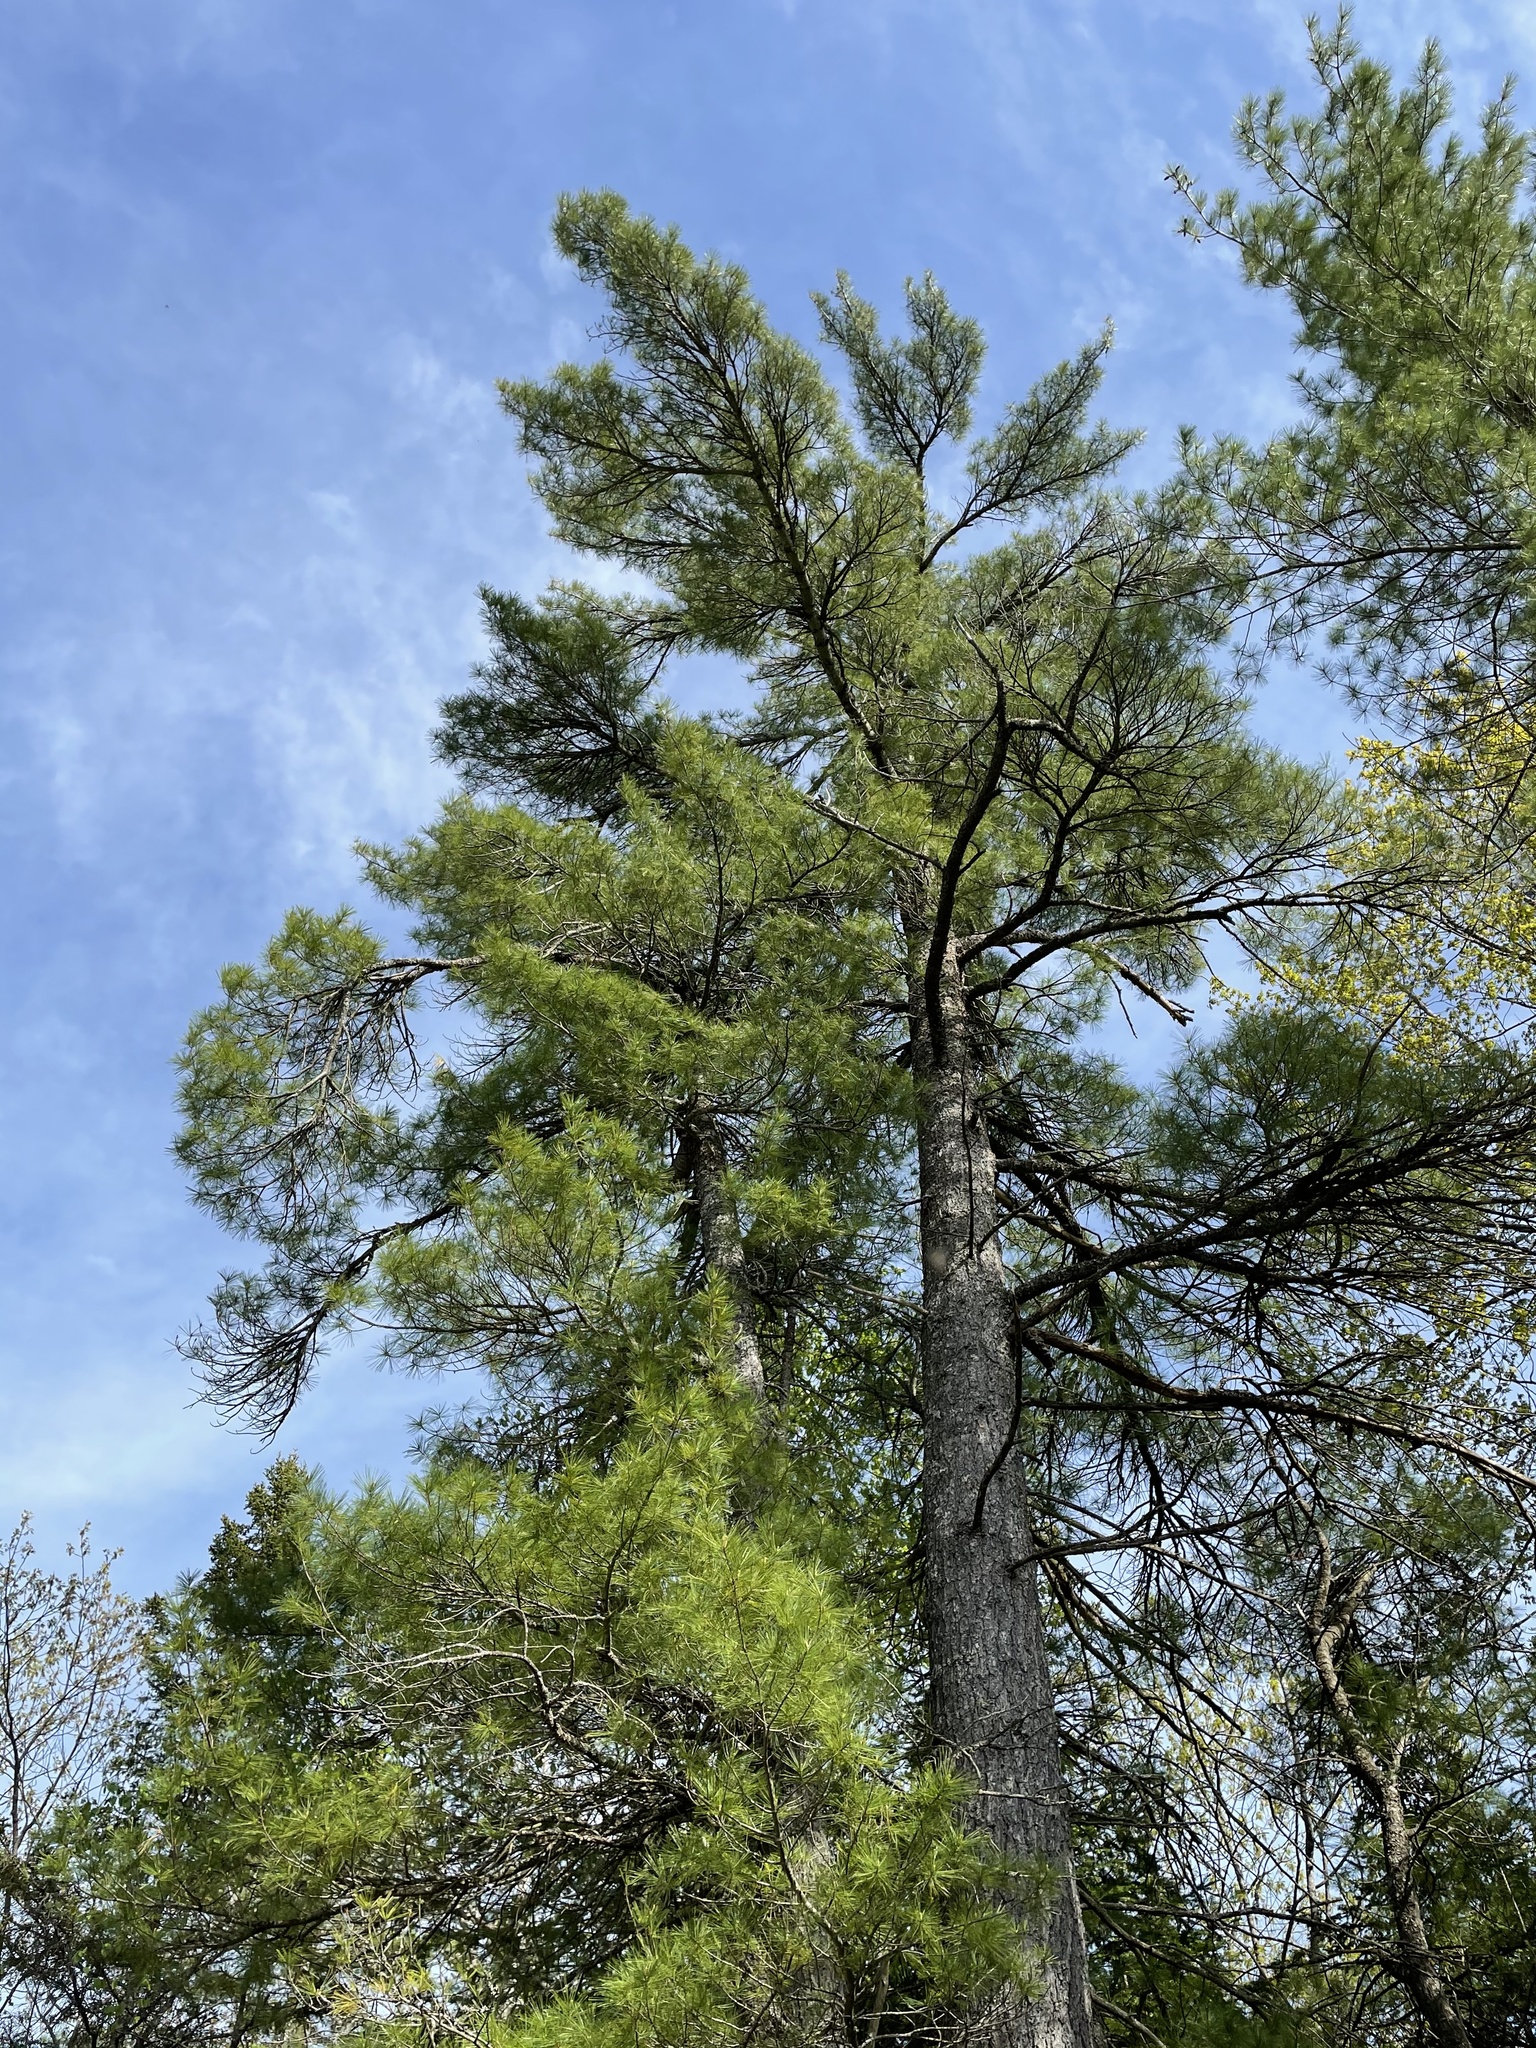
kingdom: Plantae
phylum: Tracheophyta
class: Pinopsida
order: Pinales
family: Pinaceae
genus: Pinus
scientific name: Pinus strobus
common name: Weymouth pine
